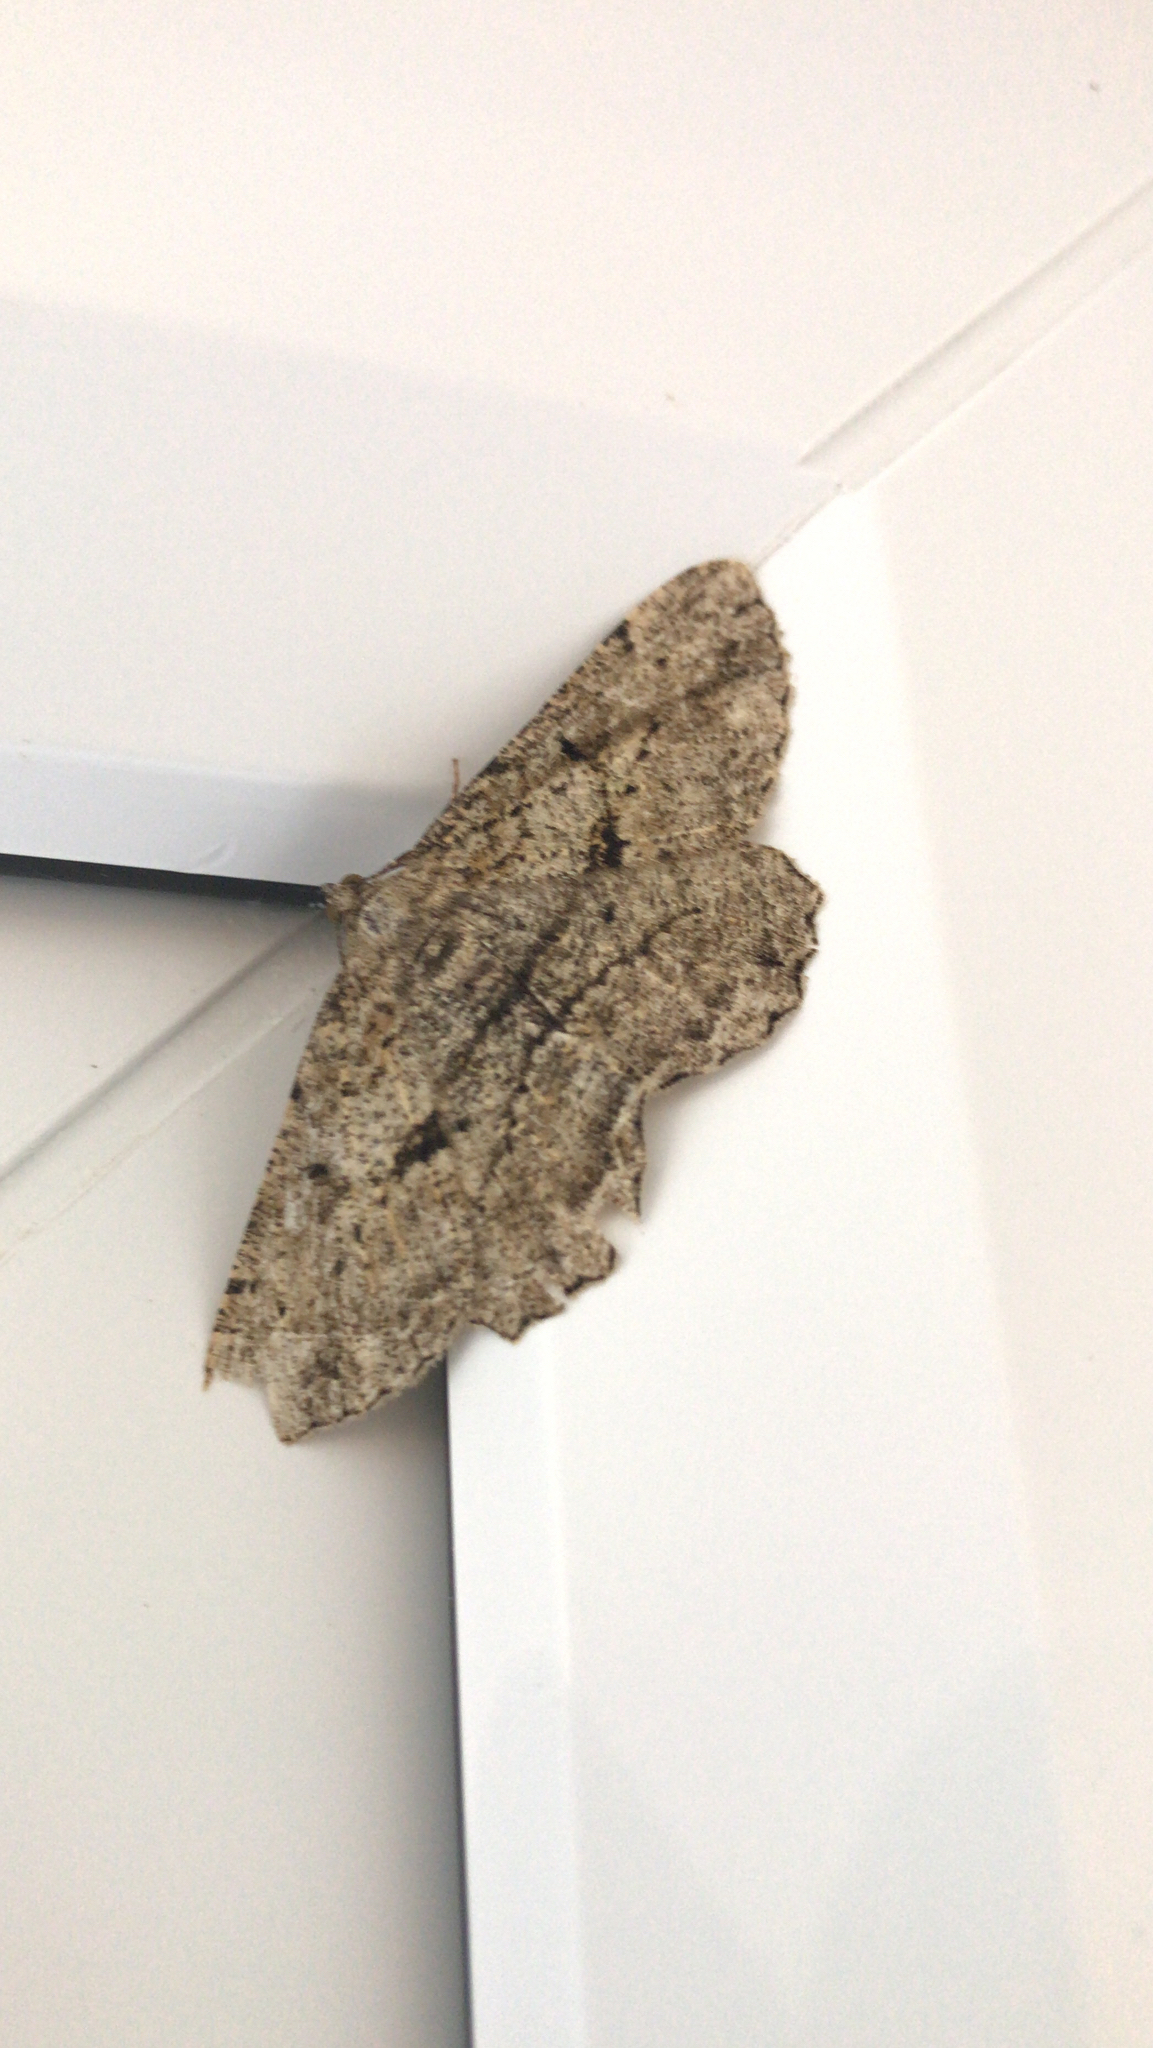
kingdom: Animalia
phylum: Arthropoda
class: Insecta
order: Lepidoptera
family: Geometridae
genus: Peribatodes
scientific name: Peribatodes rhomboidaria
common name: Willow beauty
